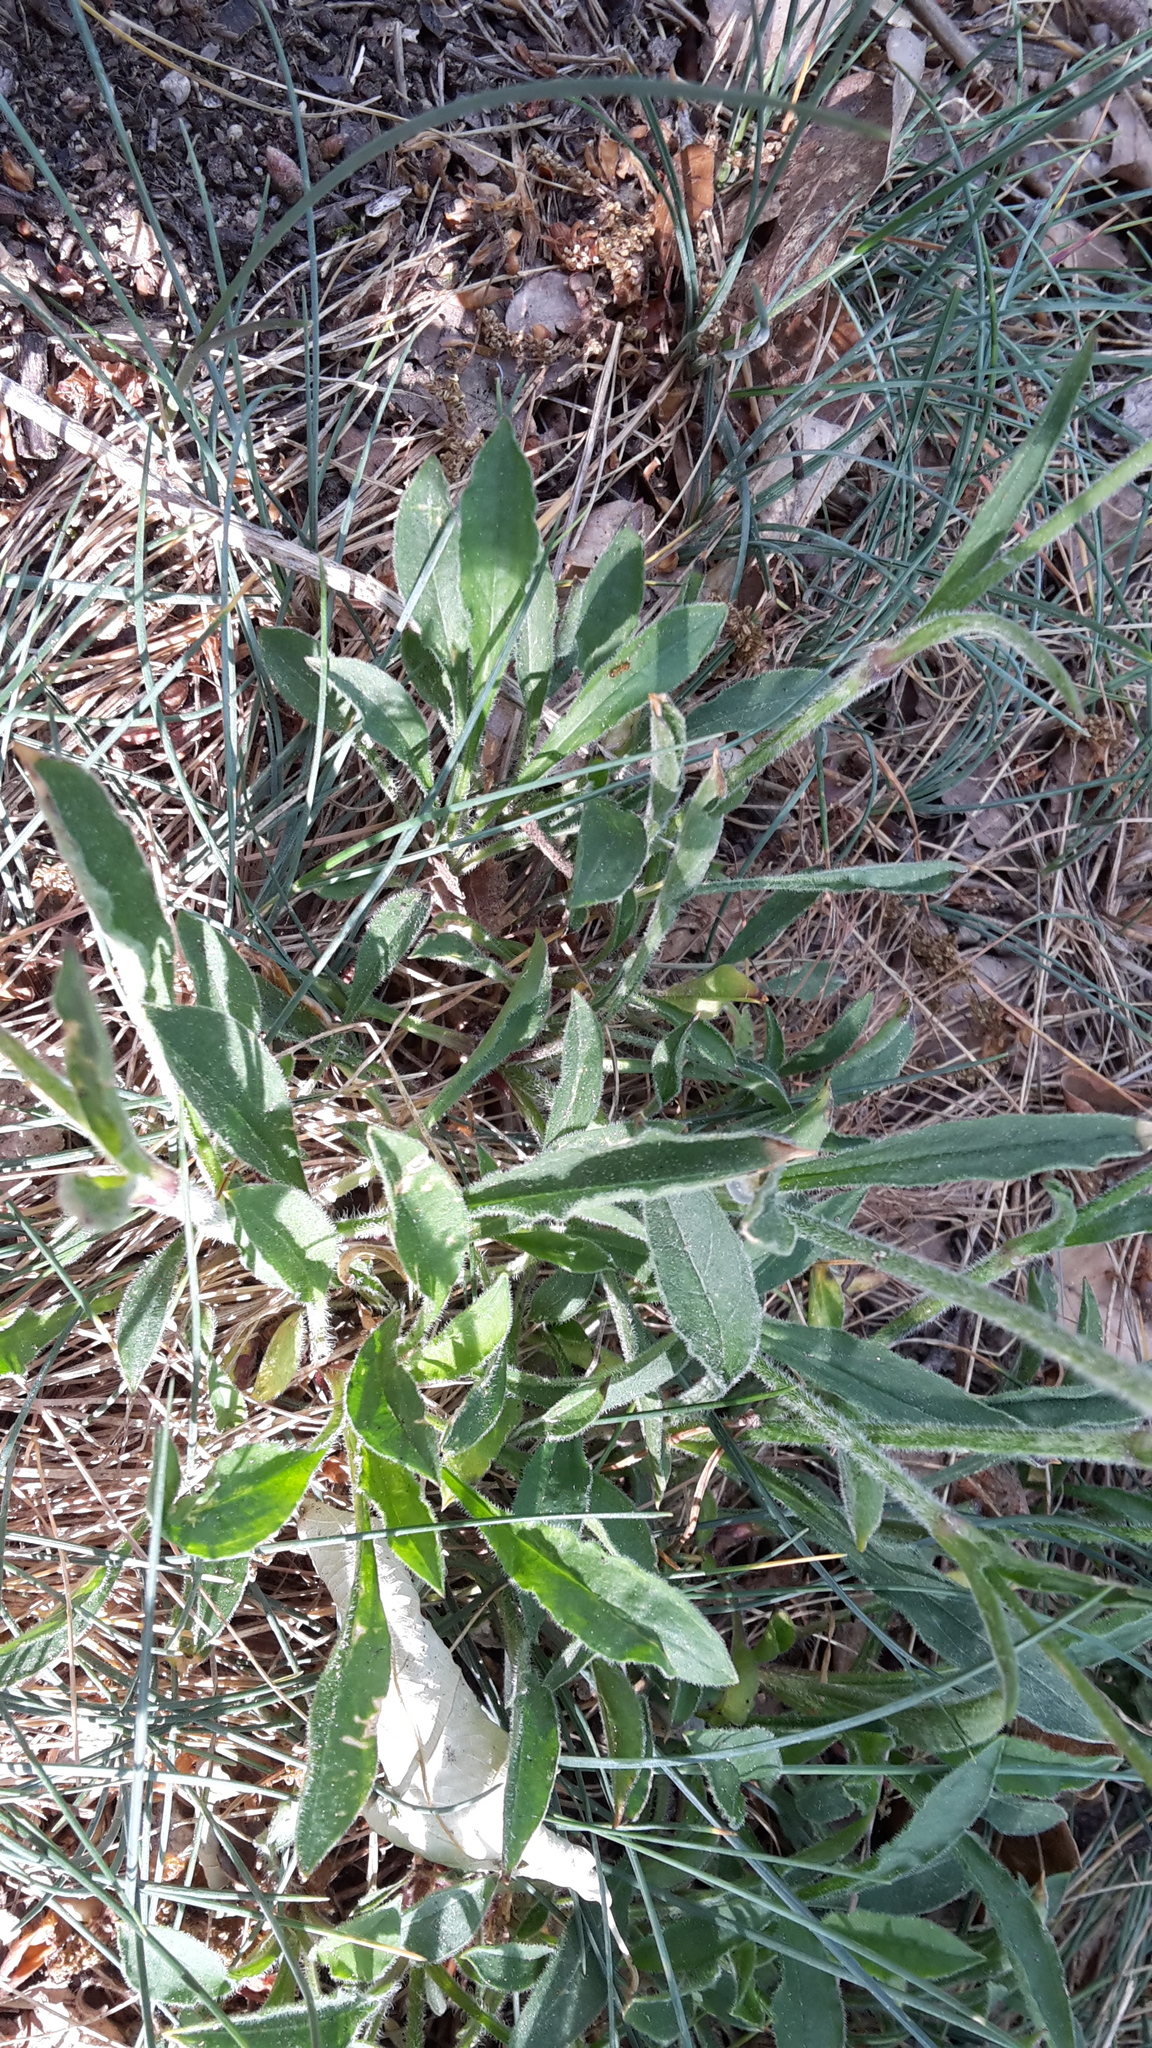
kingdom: Plantae
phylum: Tracheophyta
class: Magnoliopsida
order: Caryophyllales
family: Caryophyllaceae
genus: Silene
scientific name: Silene nutans
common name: Nottingham catchfly
